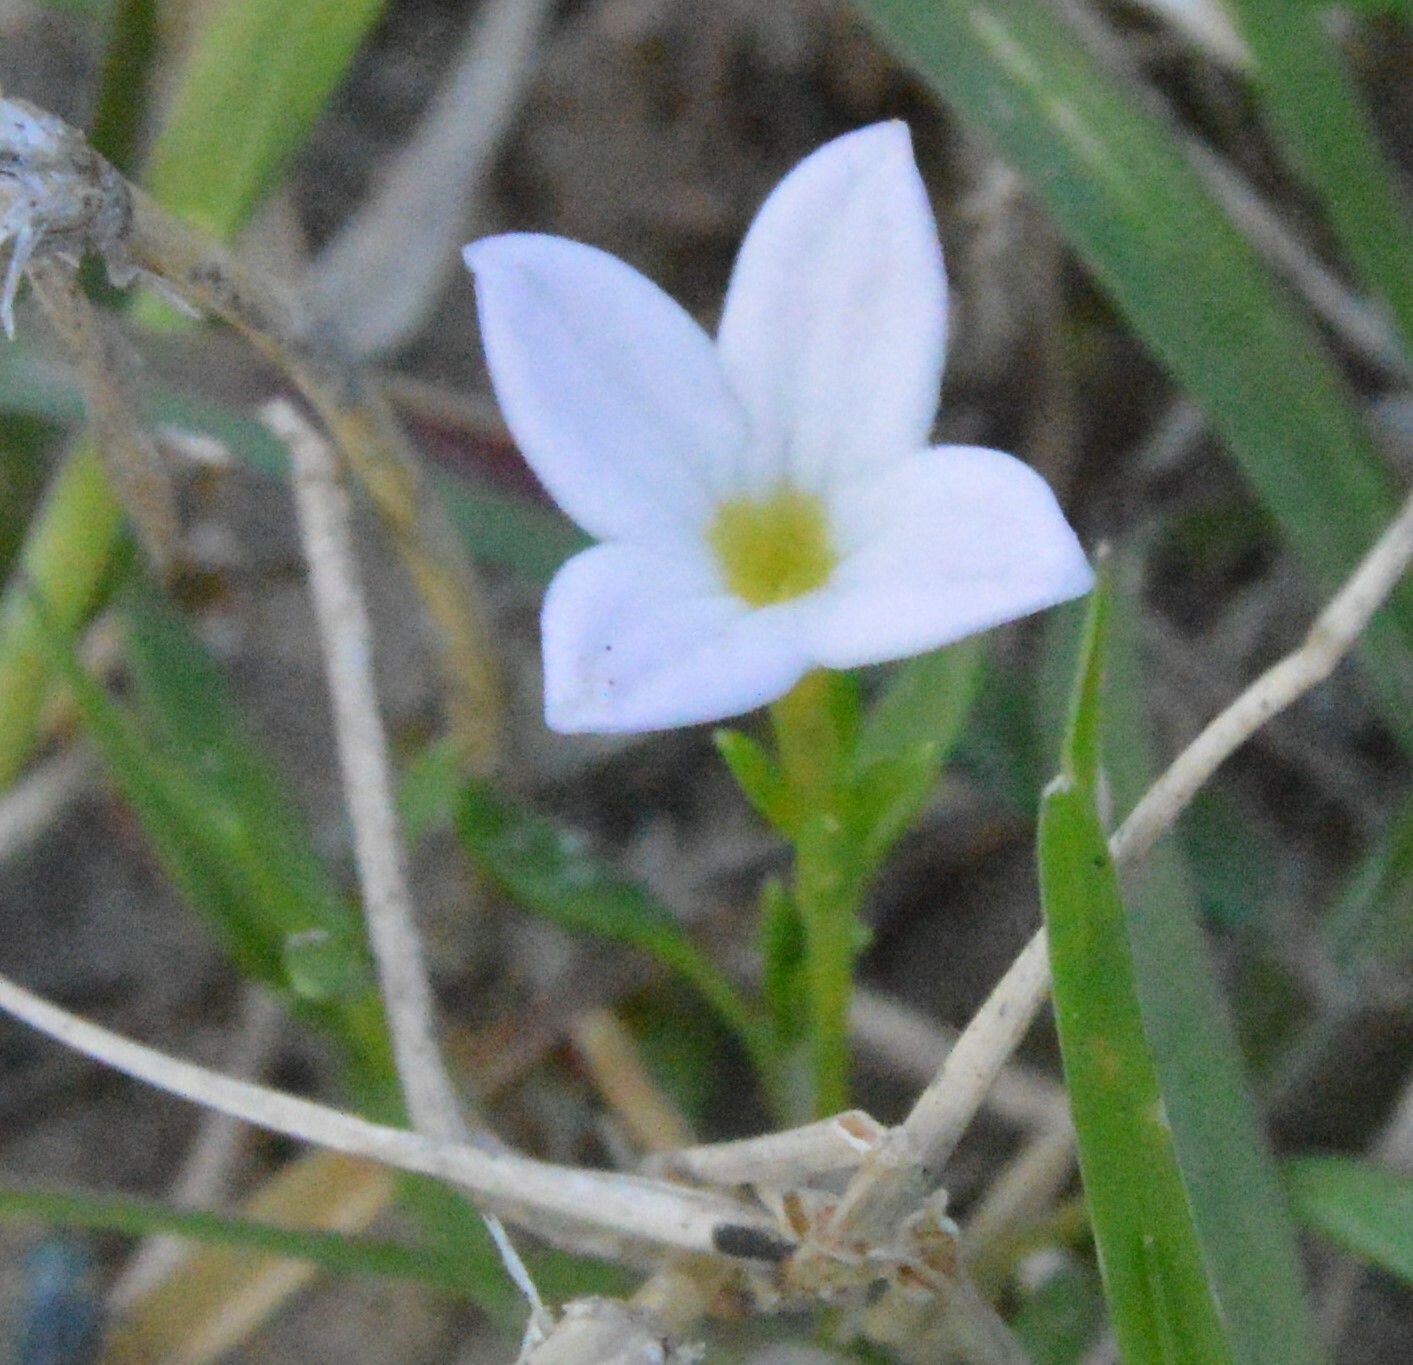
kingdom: Plantae
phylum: Tracheophyta
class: Magnoliopsida
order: Gentianales
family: Rubiaceae
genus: Houstonia
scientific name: Houstonia rosea
